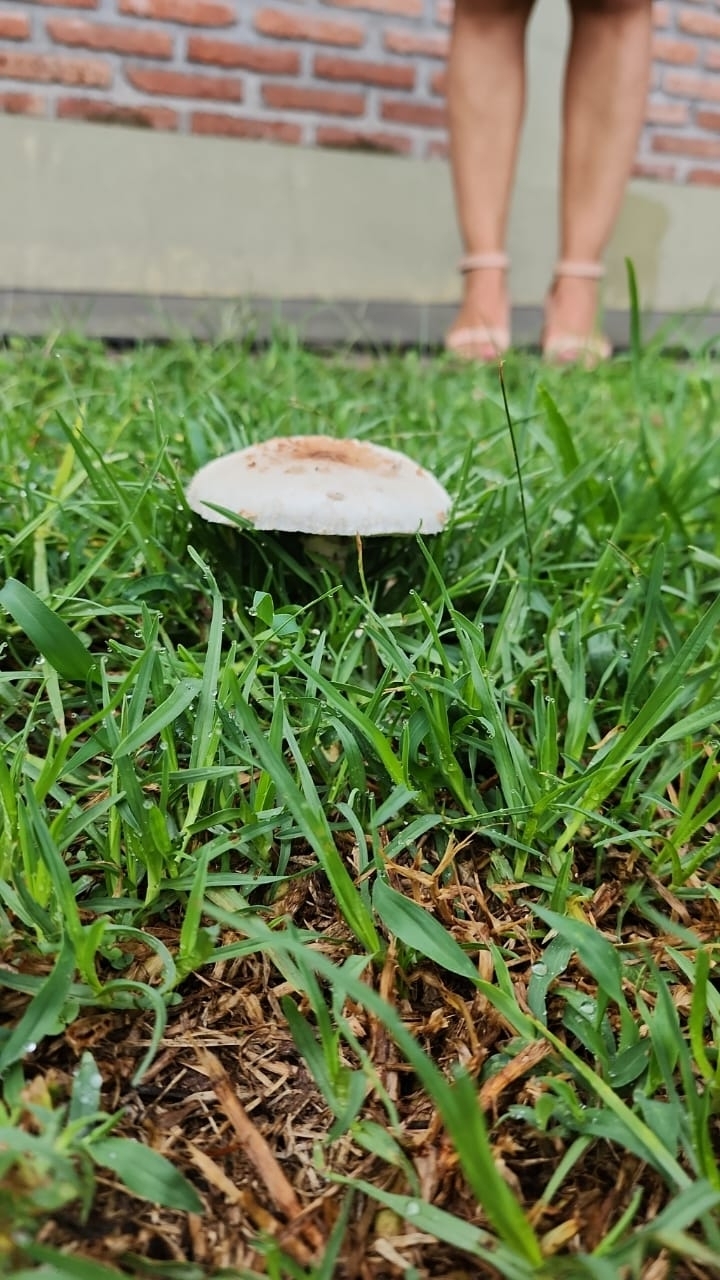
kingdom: Fungi
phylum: Basidiomycota
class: Agaricomycetes
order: Agaricales
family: Agaricaceae
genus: Chlorophyllum
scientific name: Chlorophyllum molybdites
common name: False parasol
